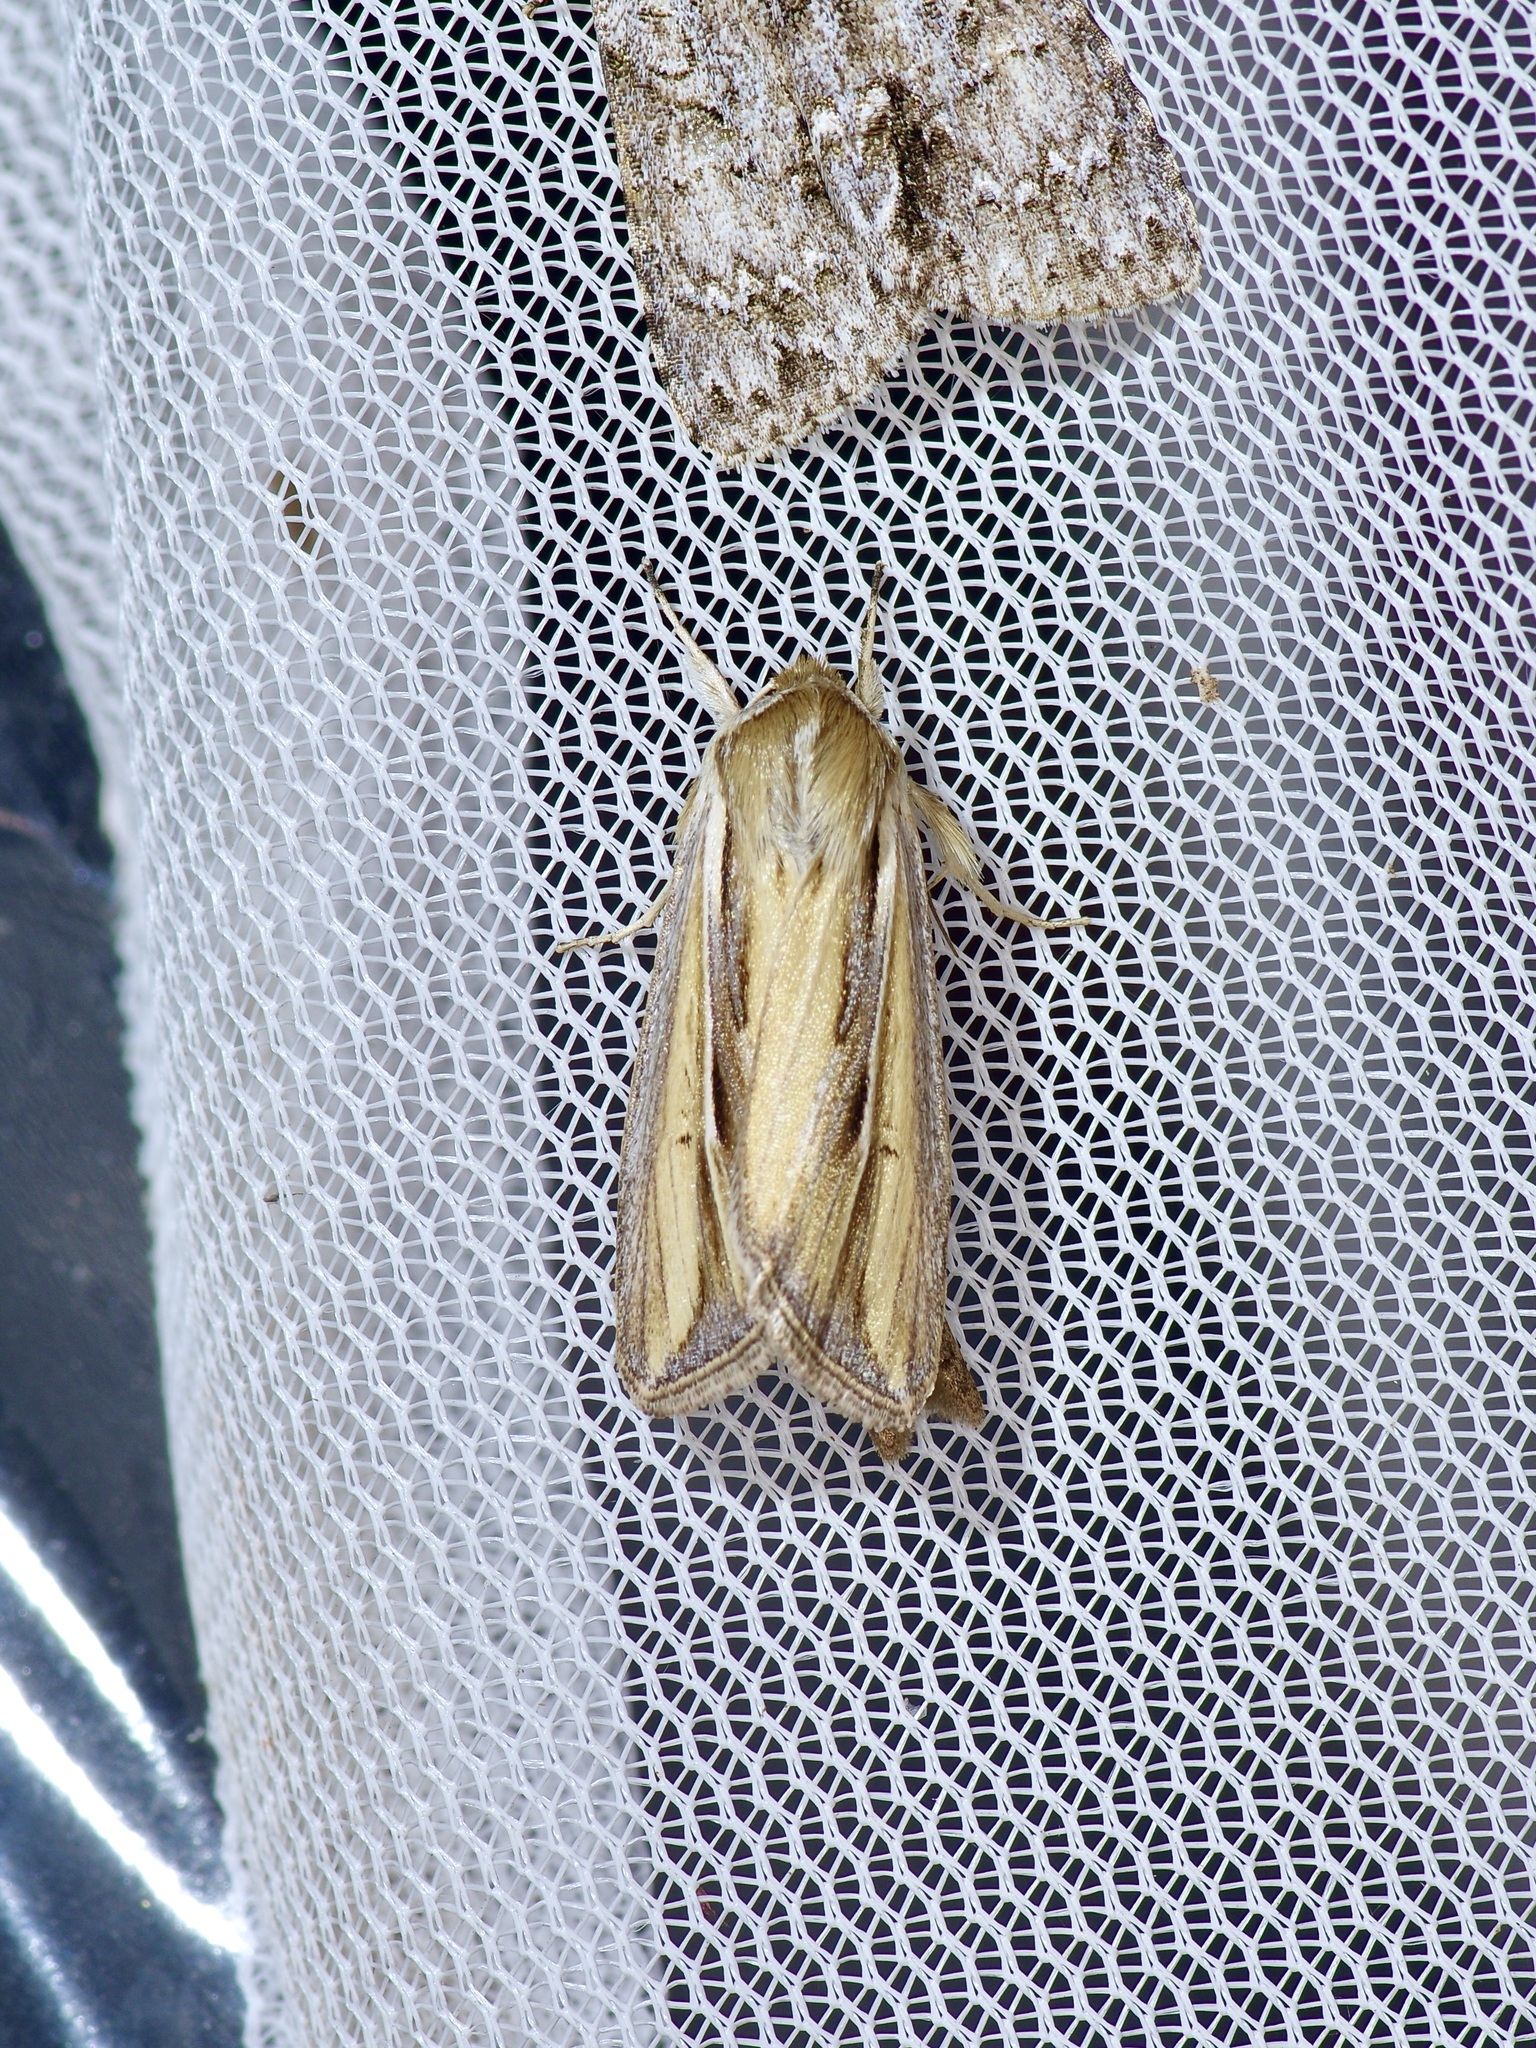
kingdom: Animalia
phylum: Arthropoda
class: Insecta
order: Lepidoptera
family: Noctuidae
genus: Dargida
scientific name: Dargida diffusa
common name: Wheat head armyworm
